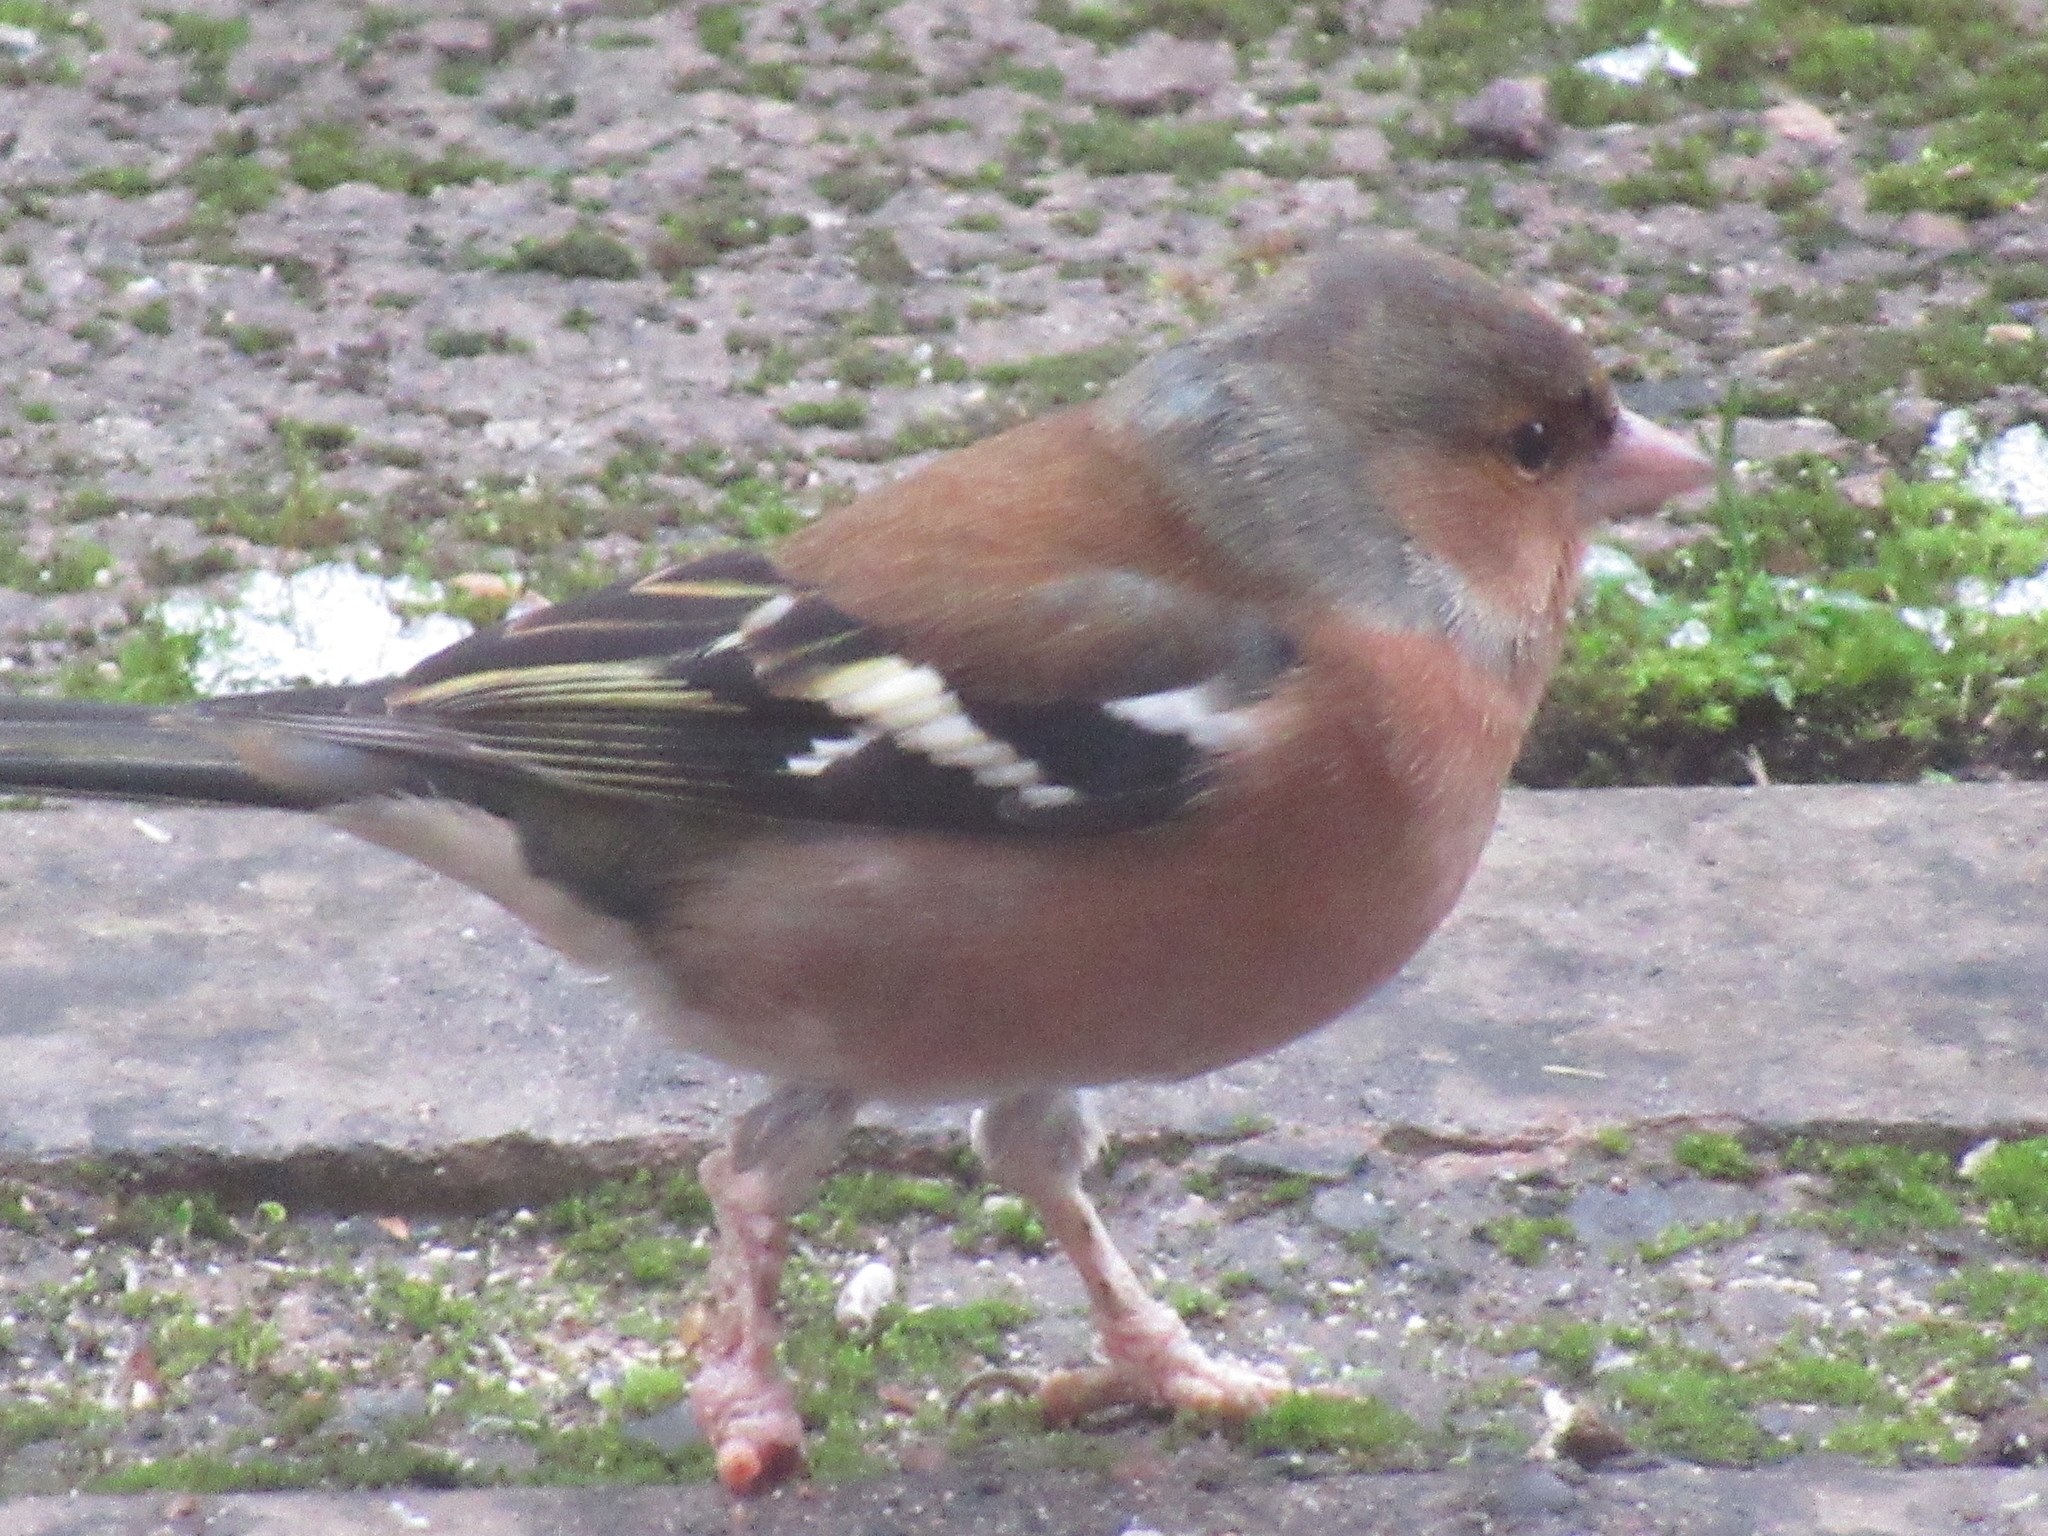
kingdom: Animalia
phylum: Chordata
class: Aves
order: Passeriformes
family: Fringillidae
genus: Fringilla
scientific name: Fringilla coelebs
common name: Common chaffinch
